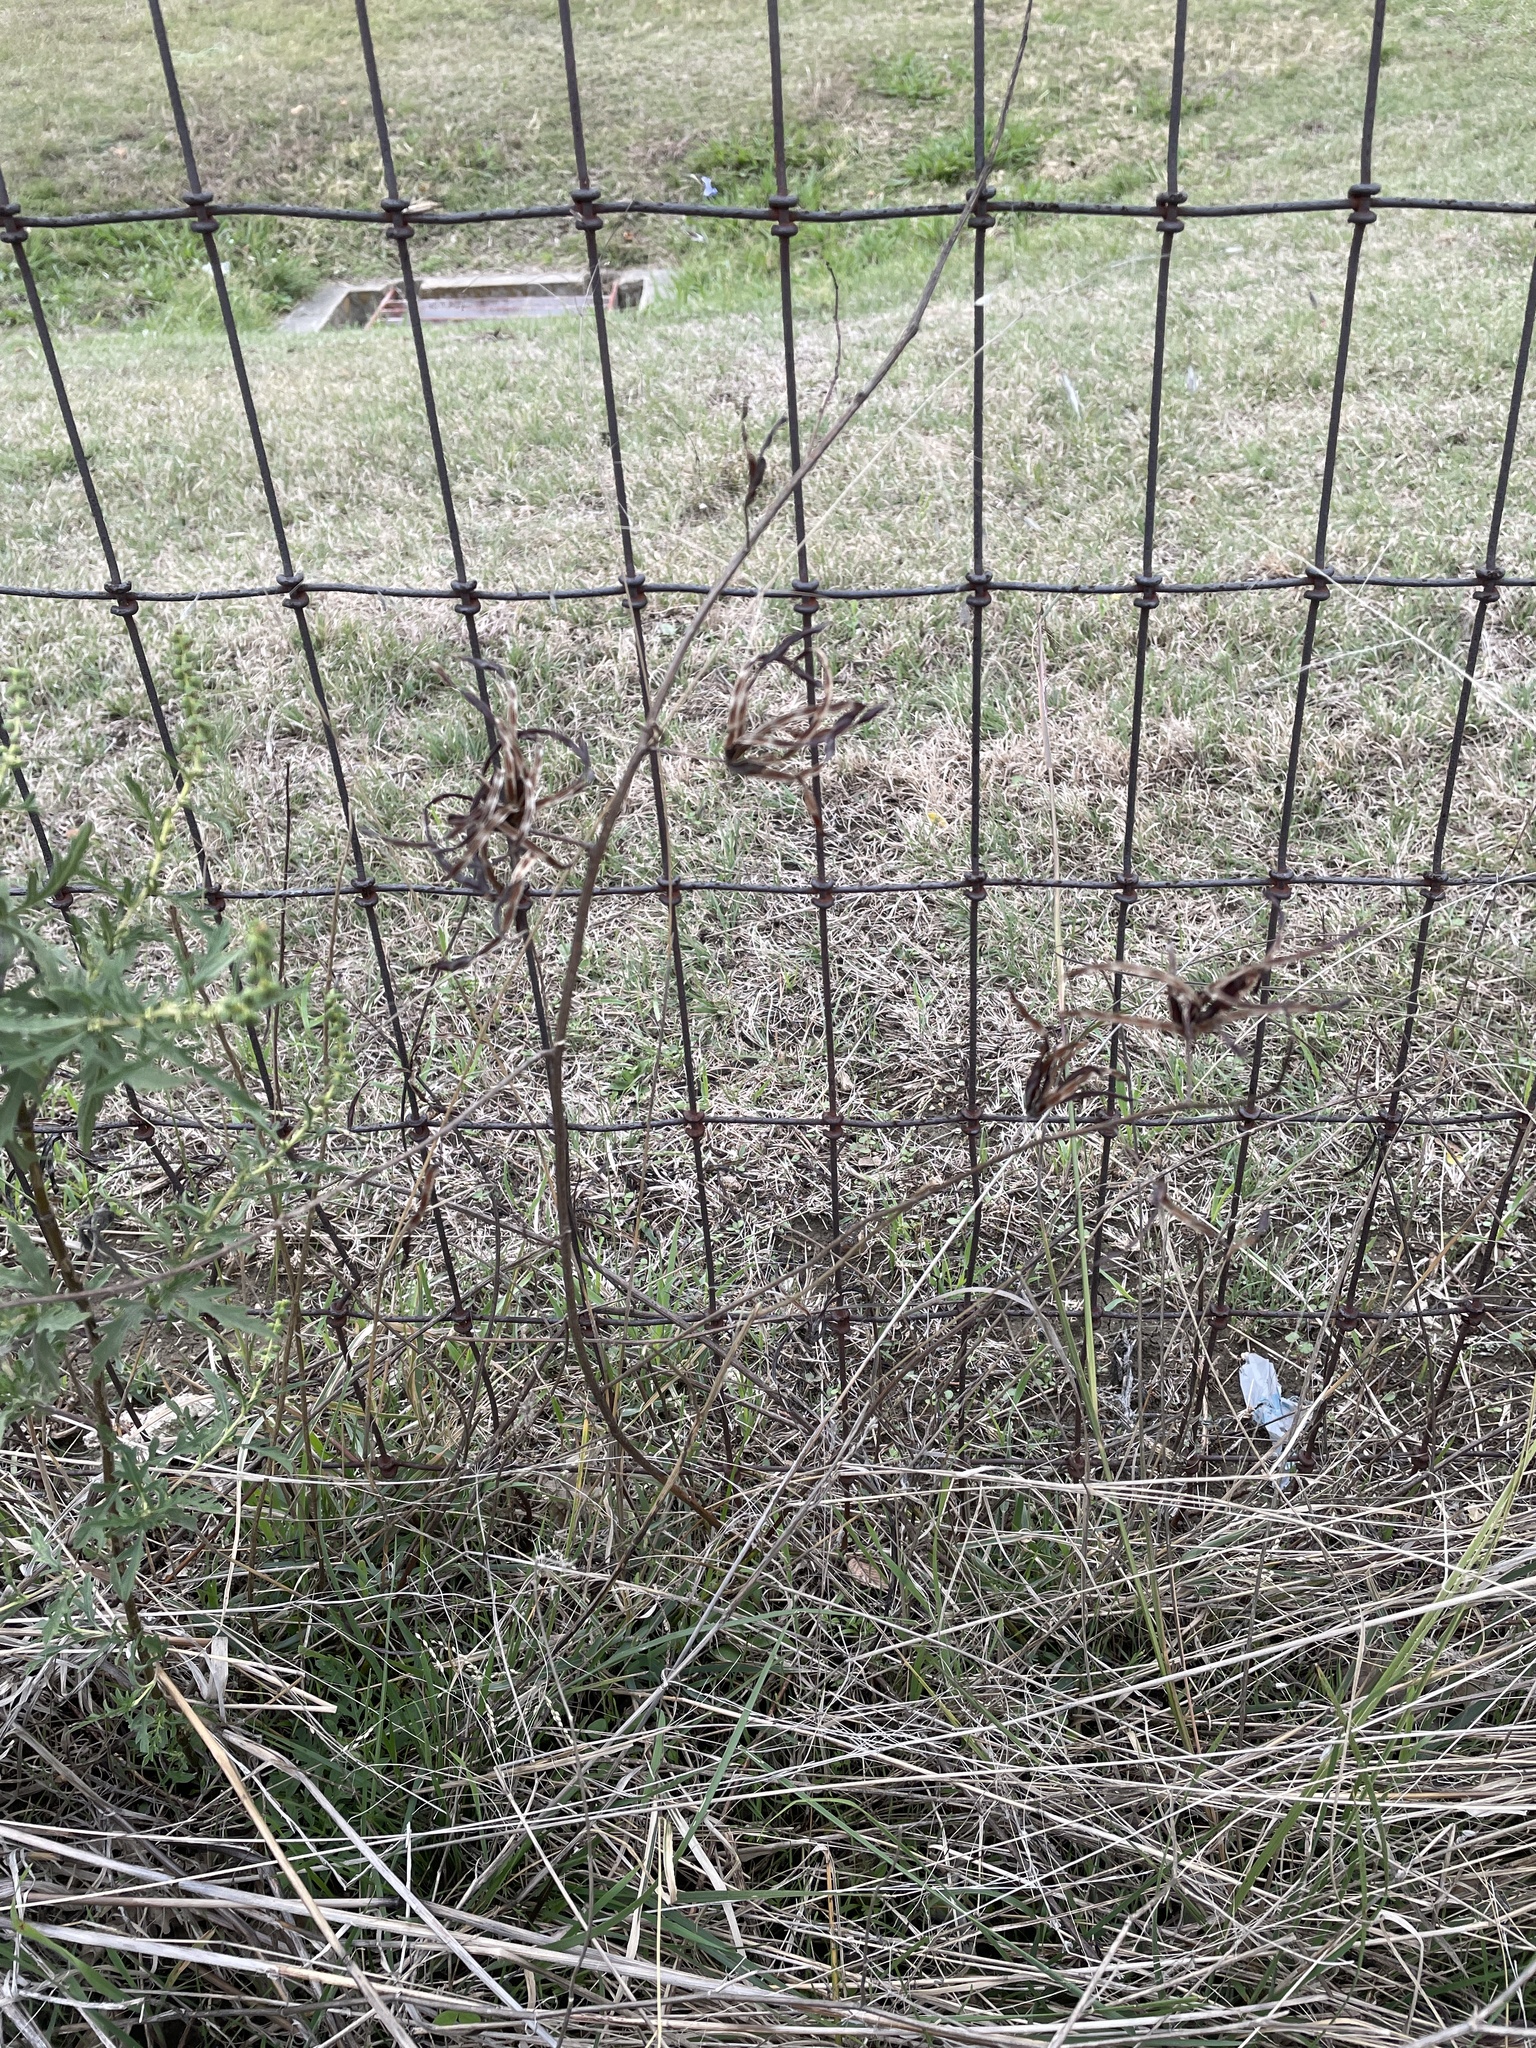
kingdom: Plantae
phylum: Tracheophyta
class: Magnoliopsida
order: Fabales
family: Fabaceae
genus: Desmanthus
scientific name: Desmanthus leptolobus
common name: Prairie-mimosa
